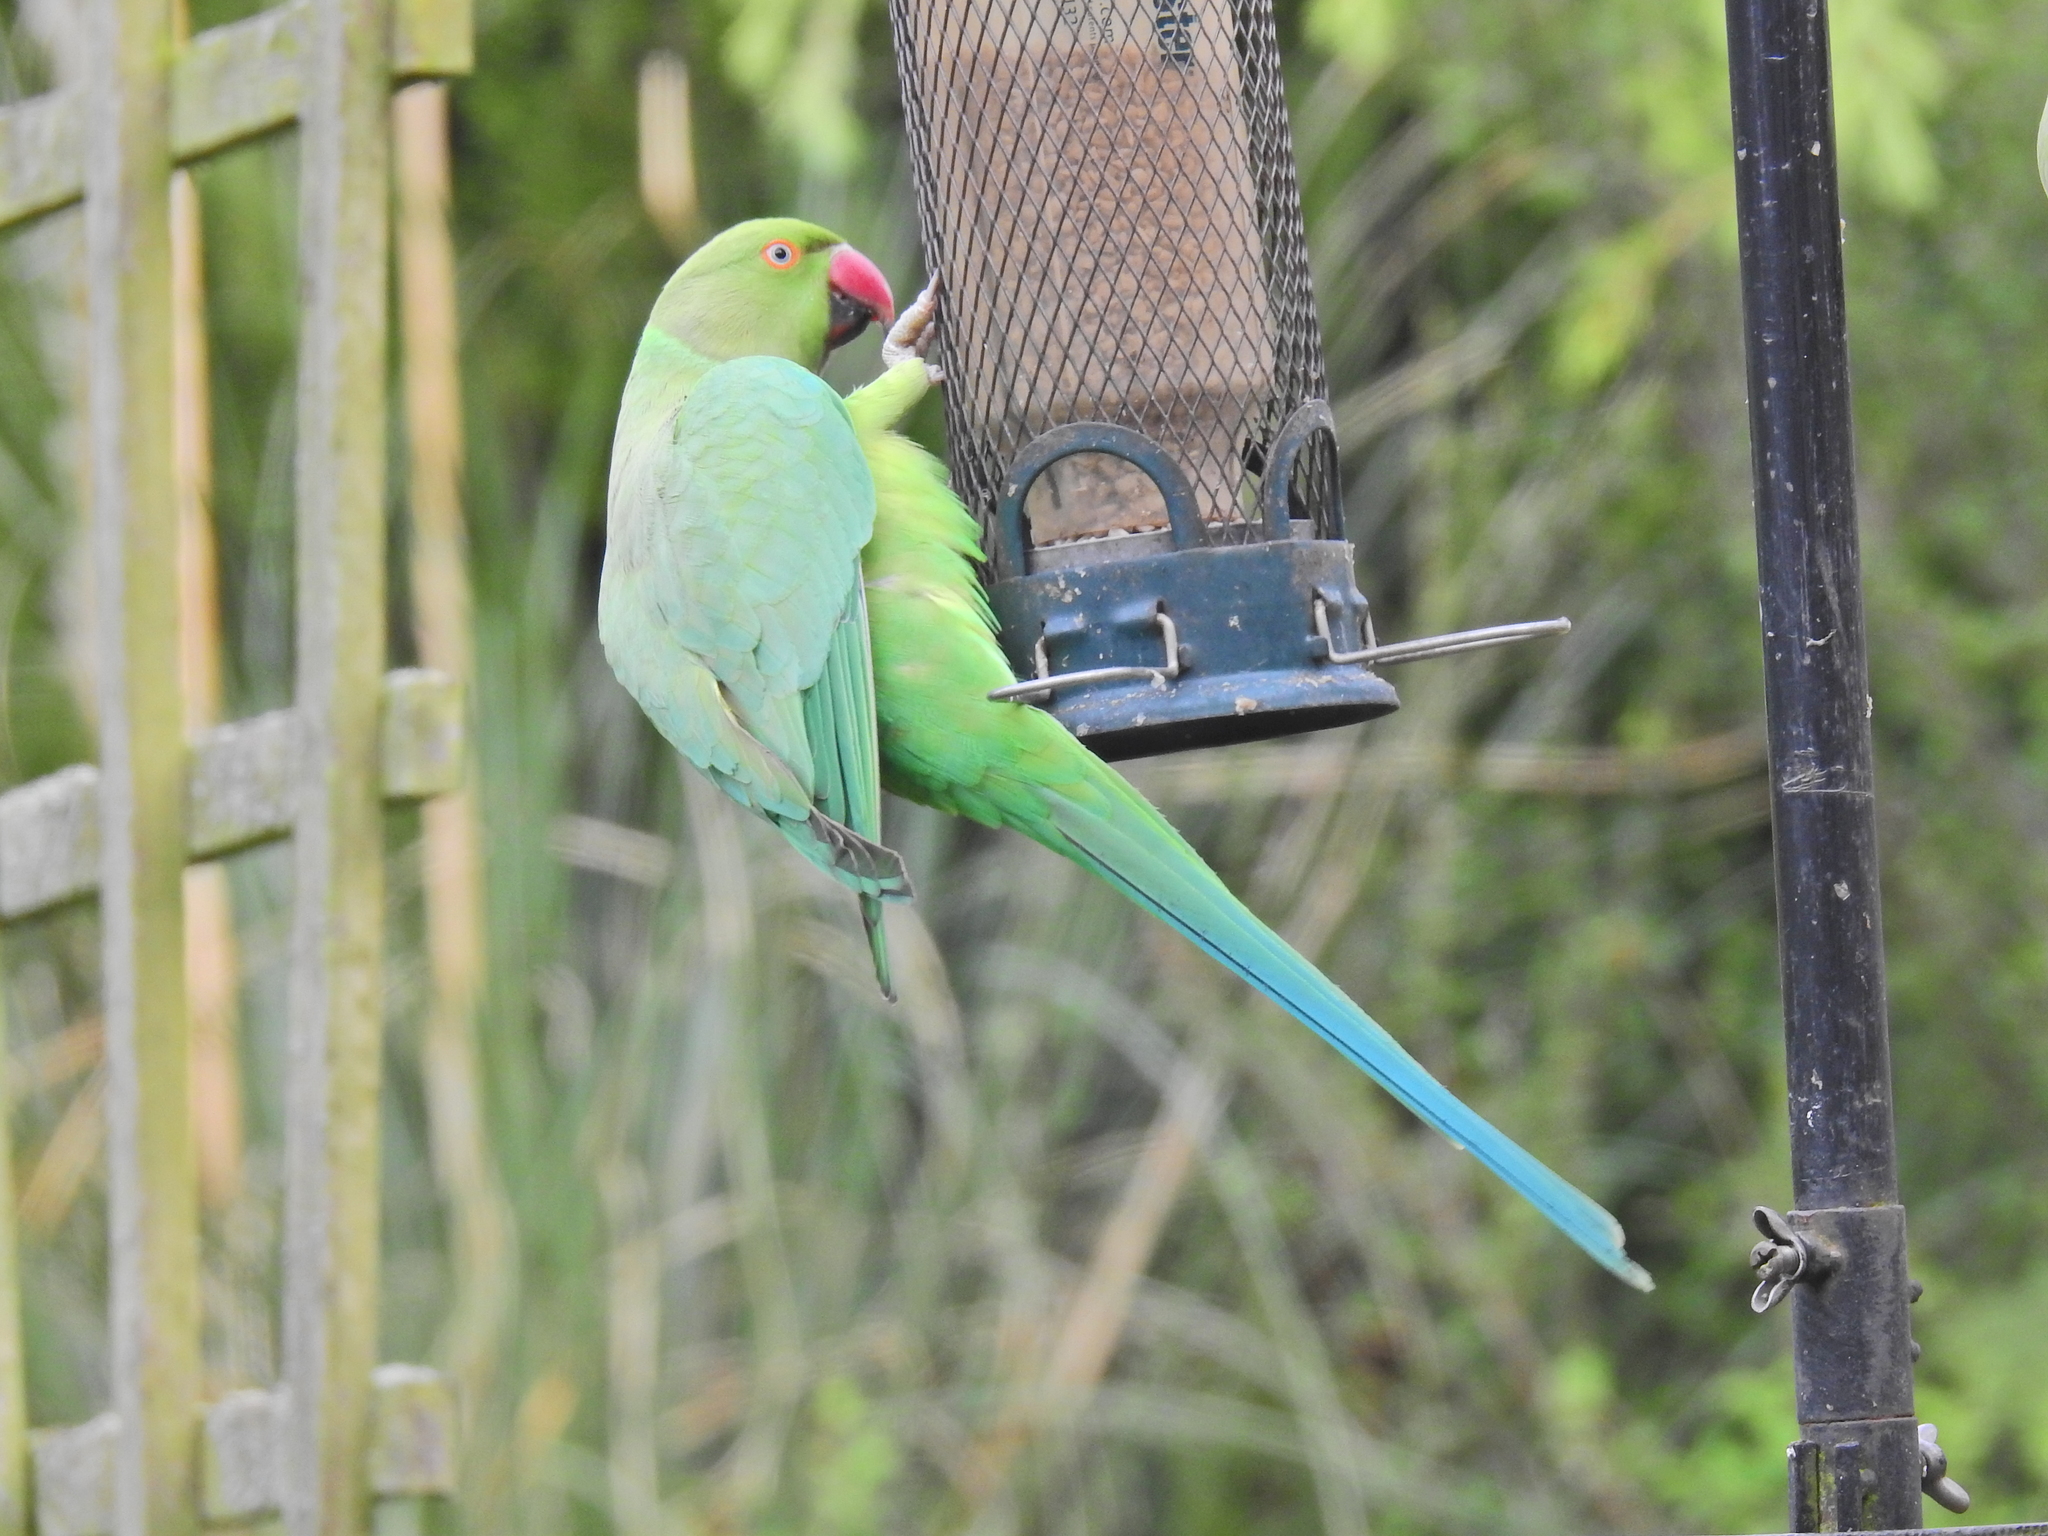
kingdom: Animalia
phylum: Chordata
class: Aves
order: Psittaciformes
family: Psittacidae
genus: Psittacula
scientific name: Psittacula krameri
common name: Rose-ringed parakeet
